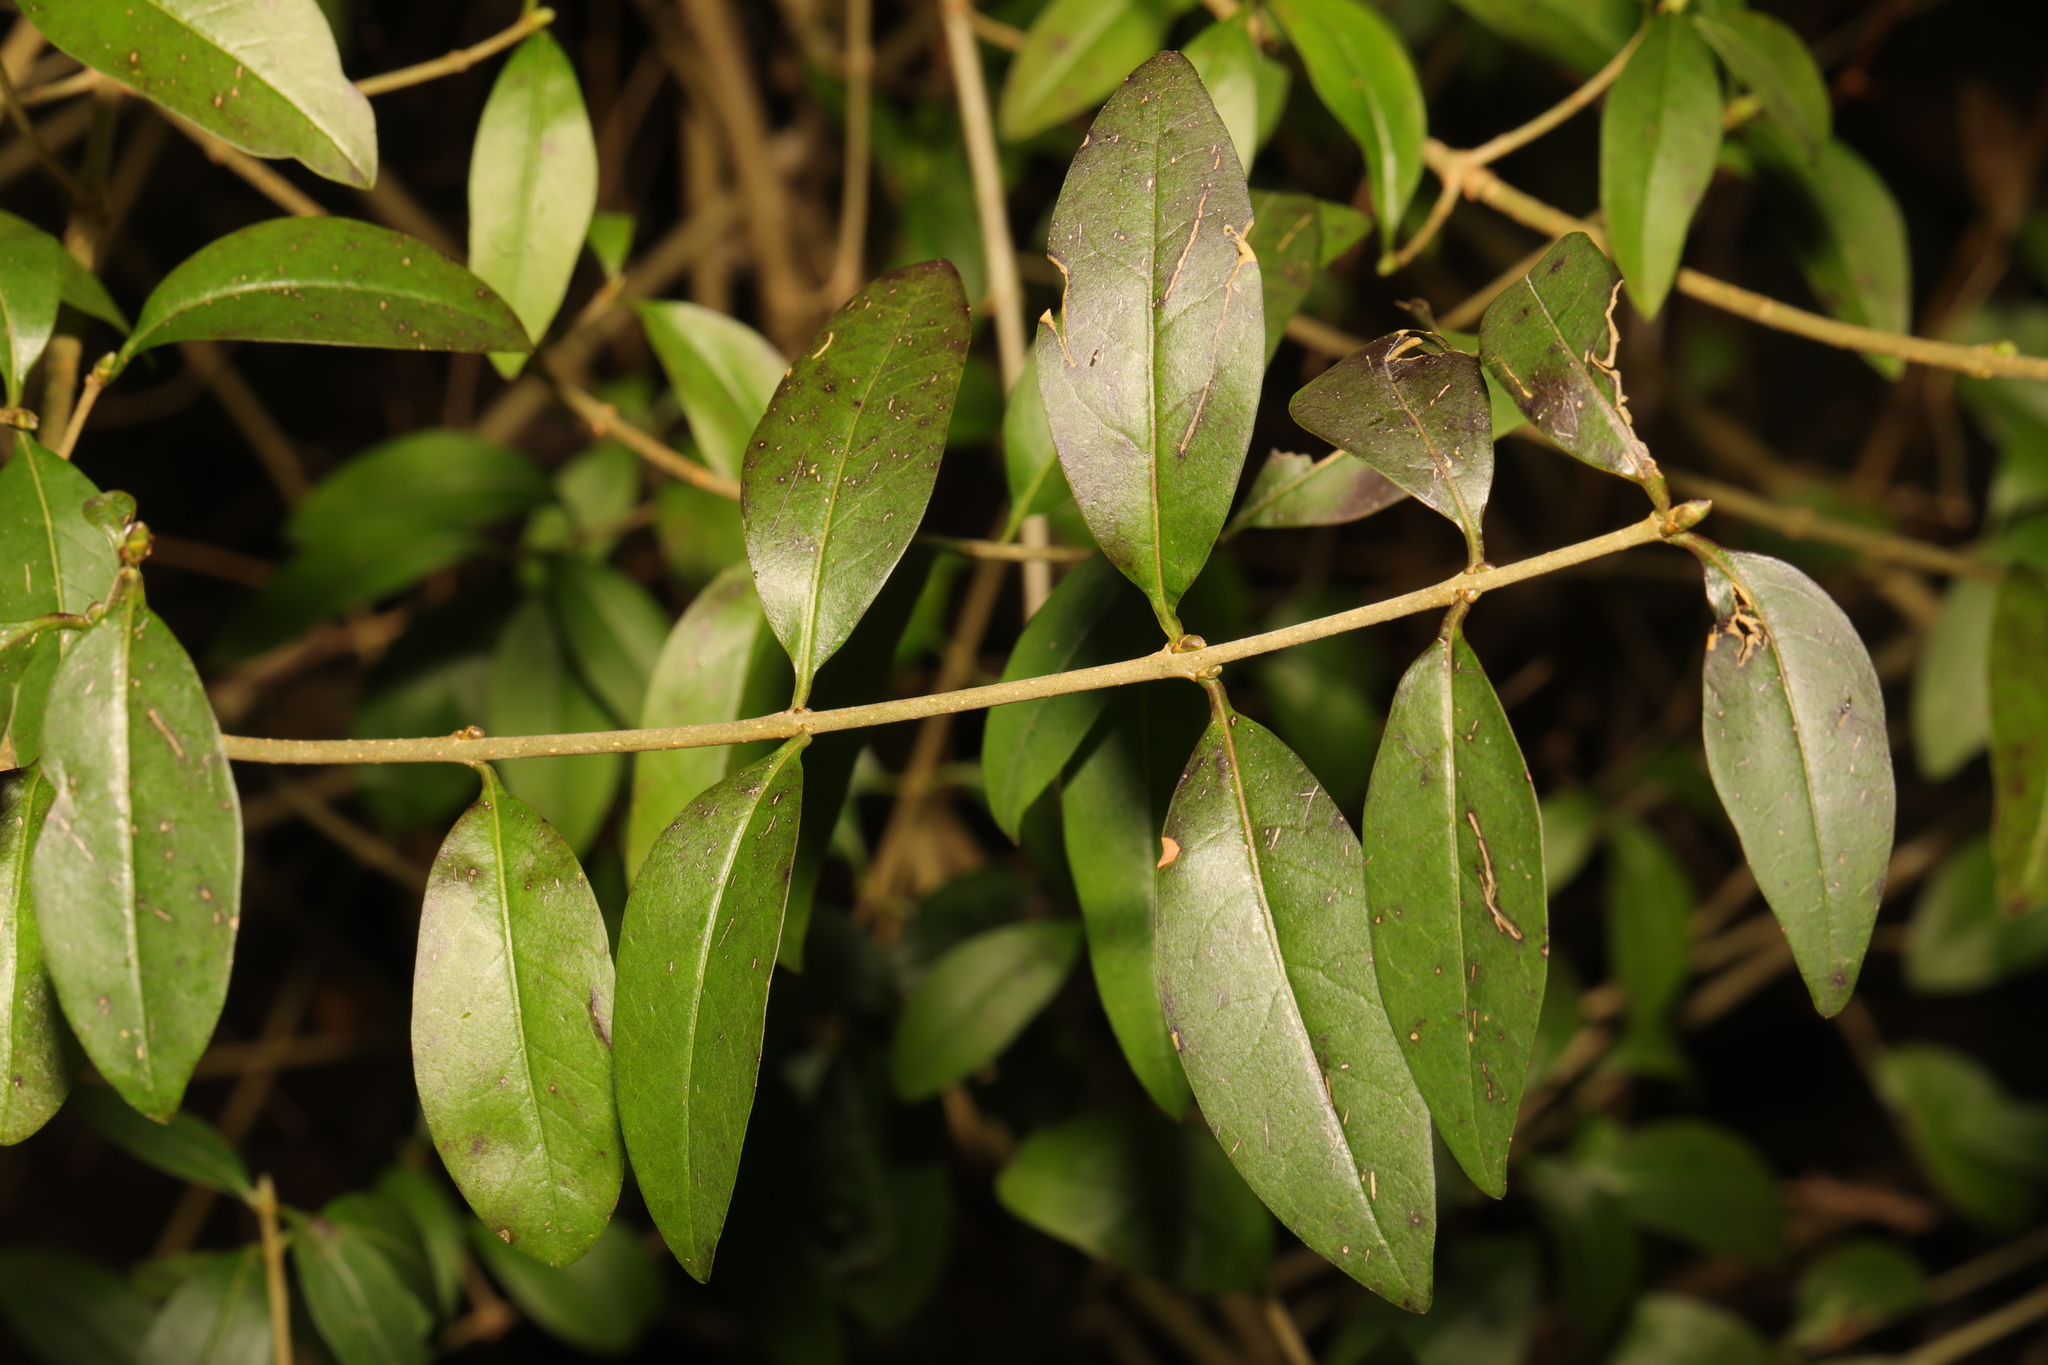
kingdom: Plantae
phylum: Tracheophyta
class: Magnoliopsida
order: Lamiales
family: Oleaceae
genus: Ligustrum
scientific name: Ligustrum vulgare
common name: Wild privet
